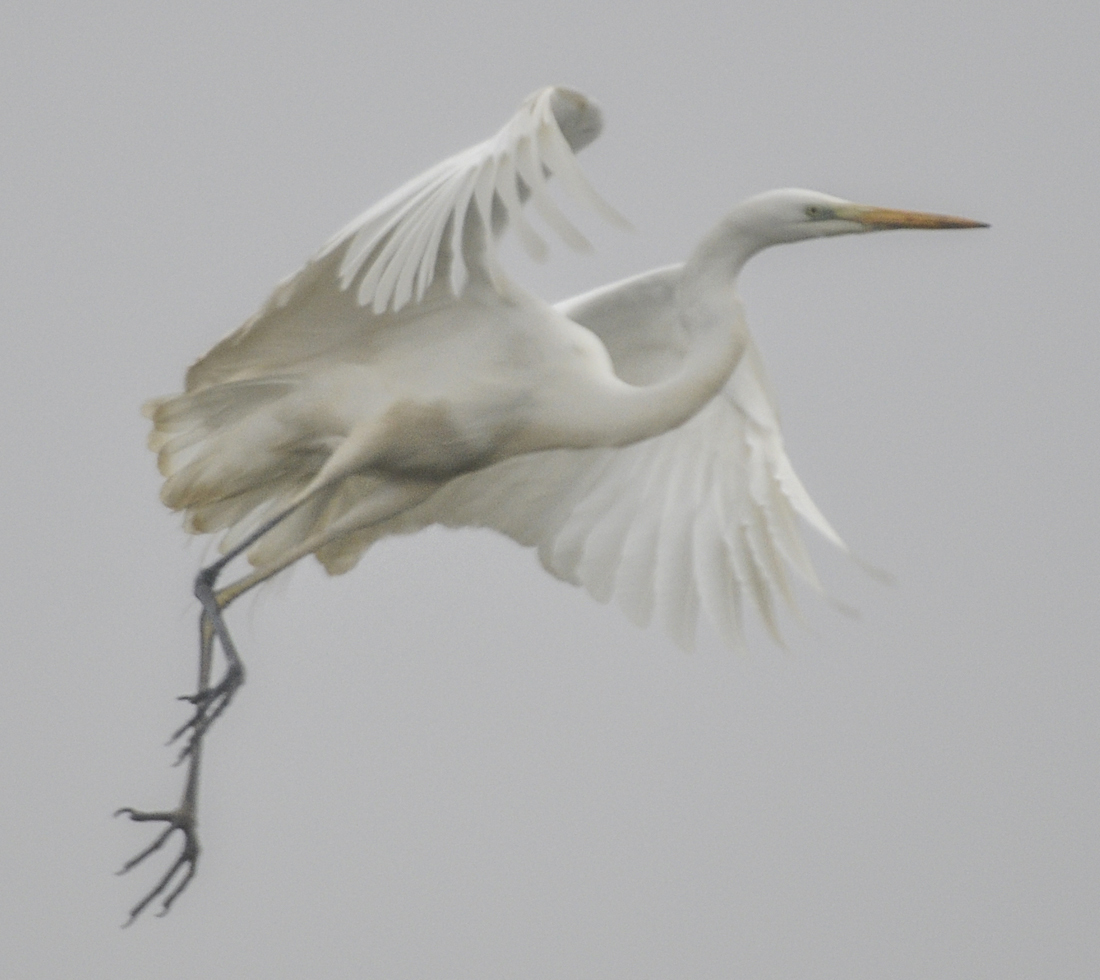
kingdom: Animalia
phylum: Chordata
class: Aves
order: Pelecaniformes
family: Ardeidae
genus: Ardea
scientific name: Ardea alba
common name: Great egret
